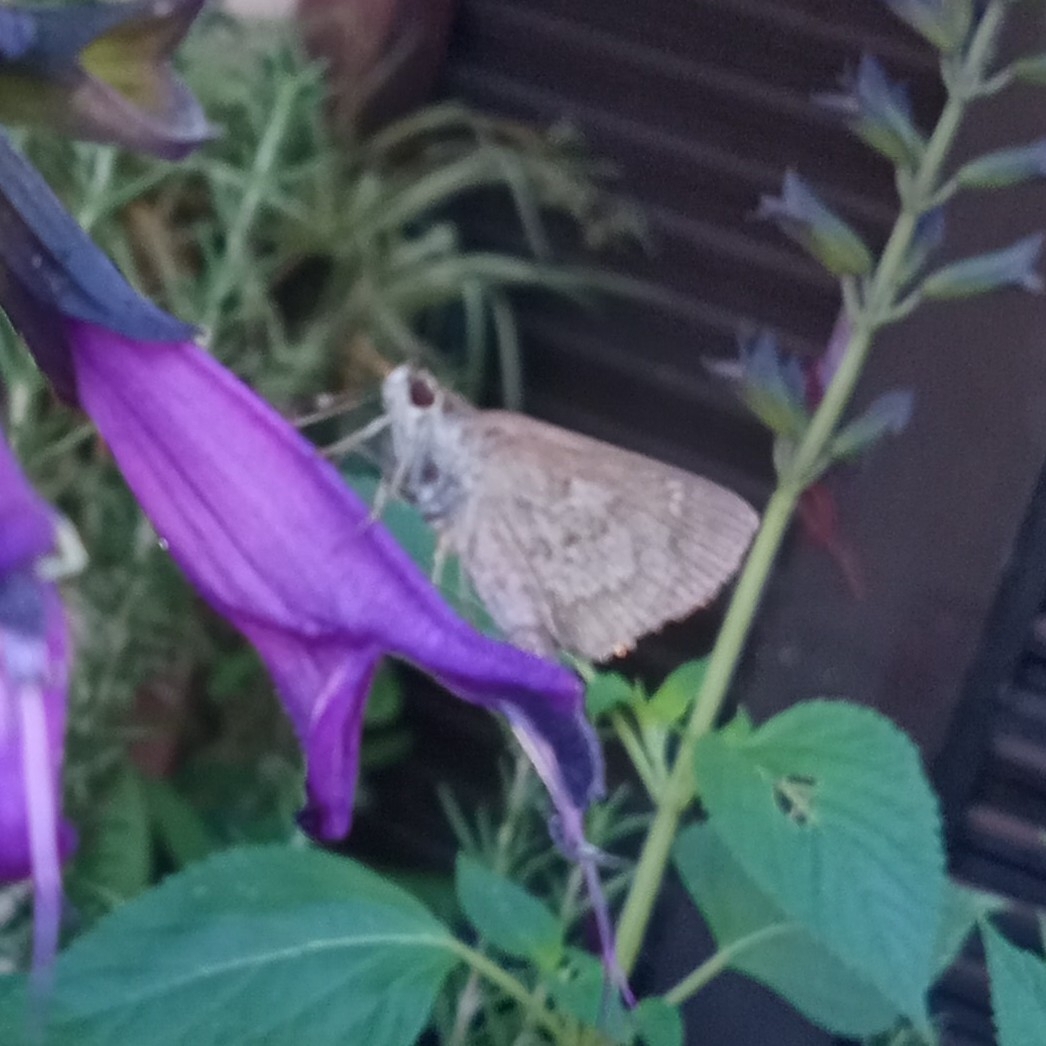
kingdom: Animalia
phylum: Arthropoda
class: Insecta
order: Lepidoptera
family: Hesperiidae
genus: Cymaenes
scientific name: Cymaenes gisca
